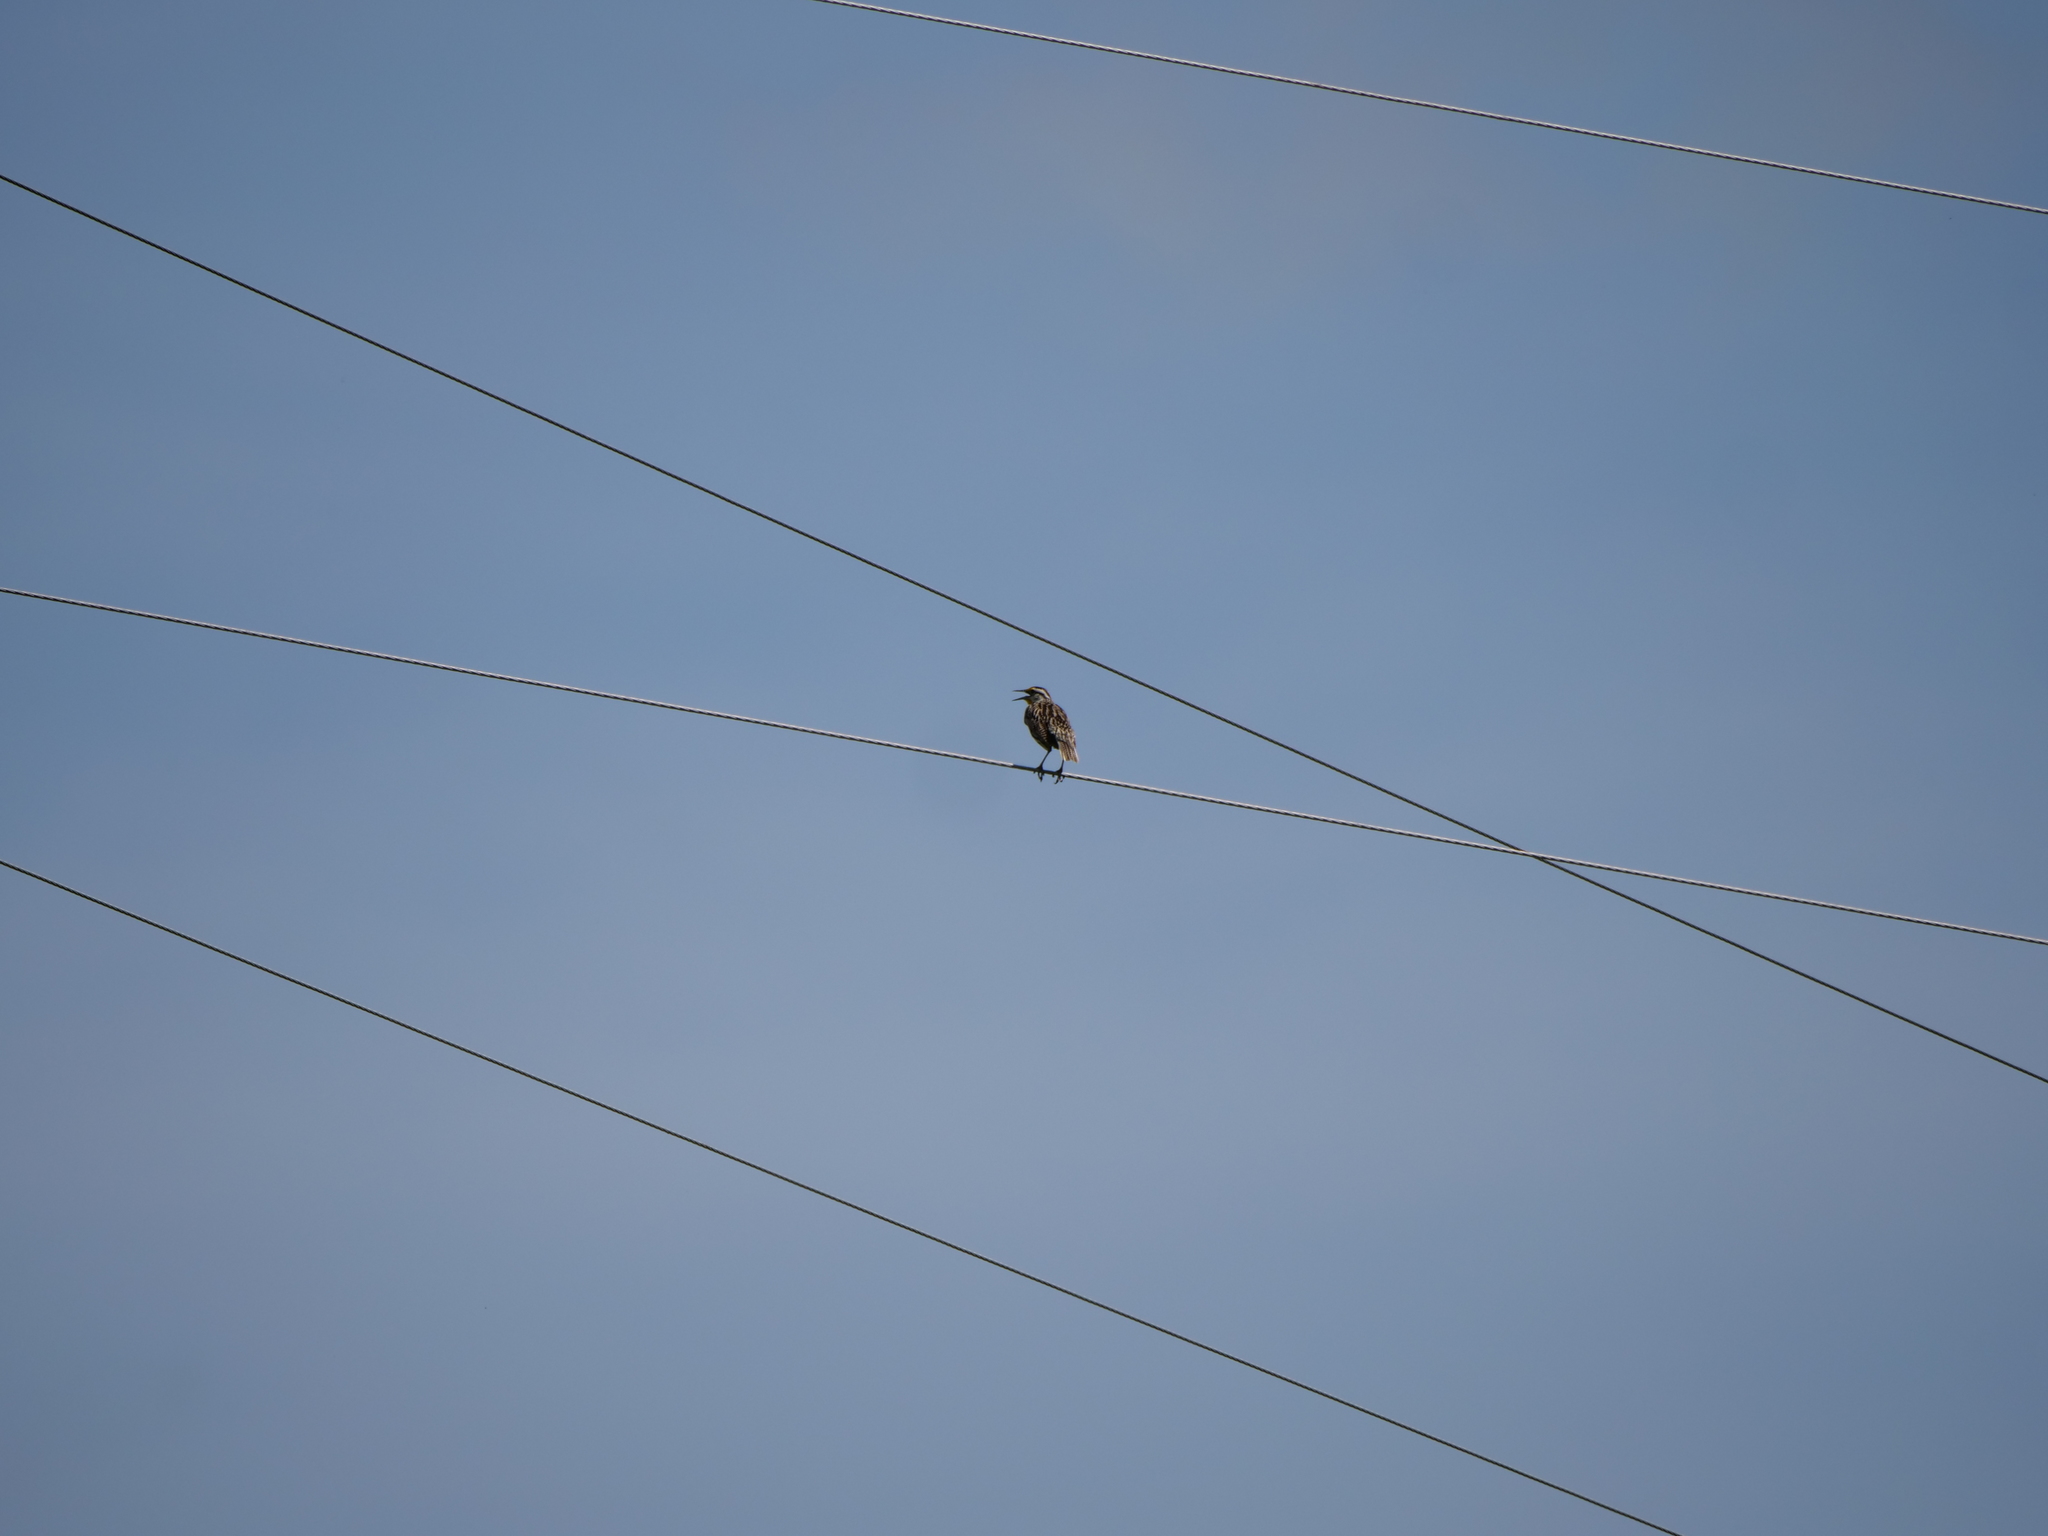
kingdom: Animalia
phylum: Chordata
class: Aves
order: Passeriformes
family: Icteridae
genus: Sturnella
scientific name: Sturnella magna
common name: Eastern meadowlark
